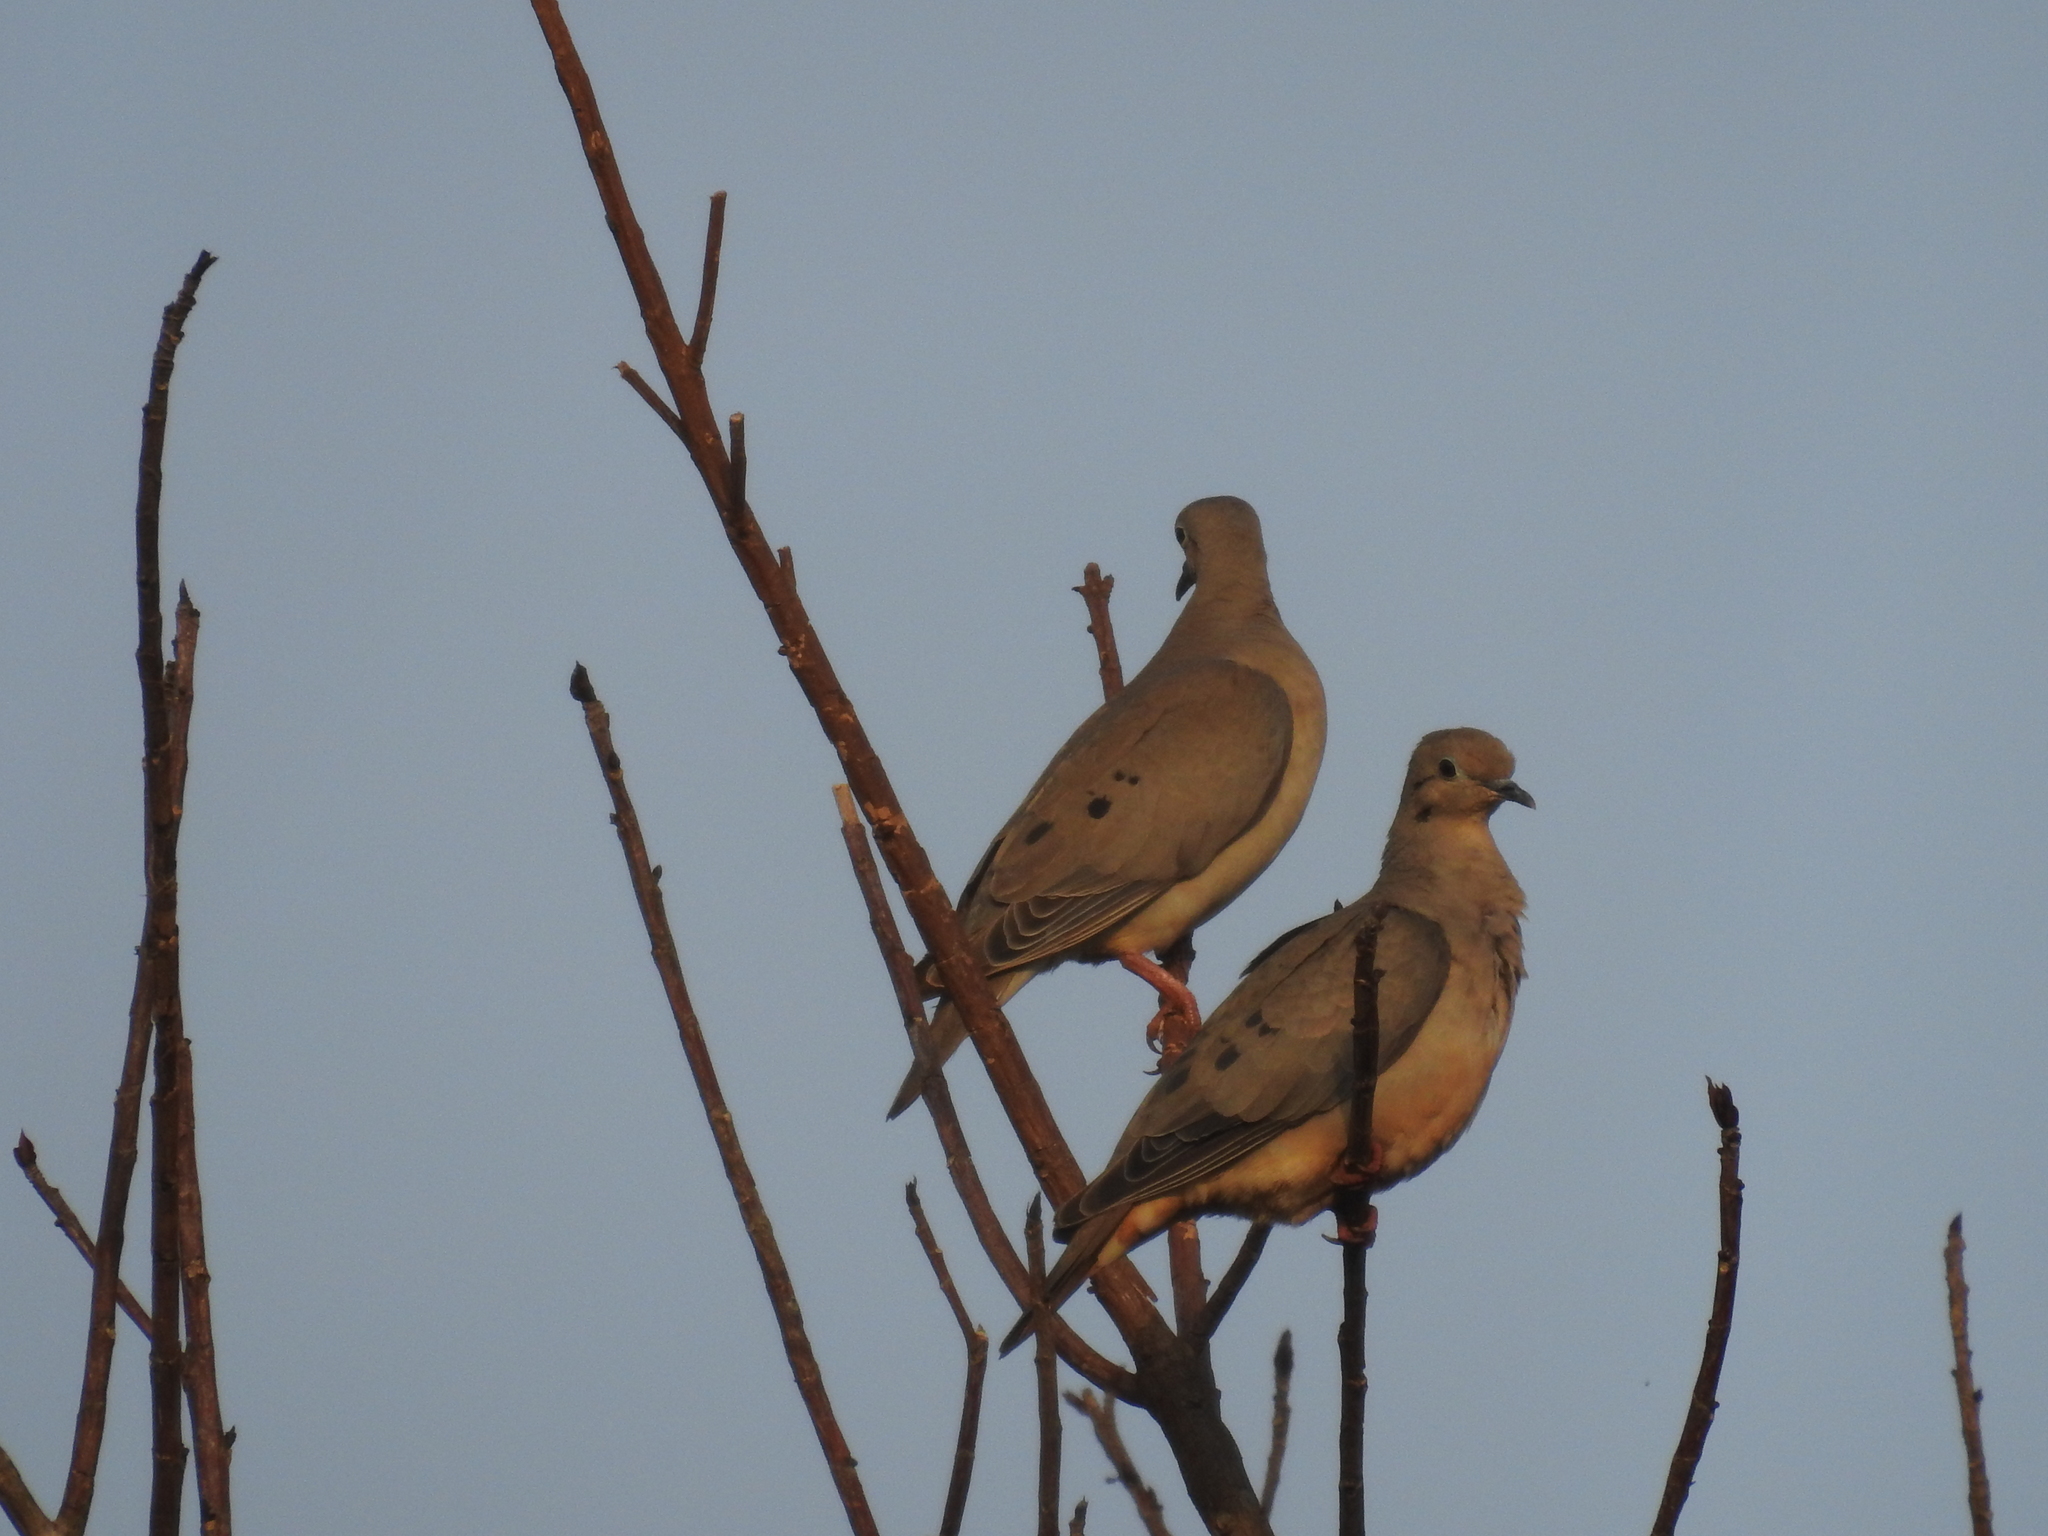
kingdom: Animalia
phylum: Chordata
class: Aves
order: Columbiformes
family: Columbidae
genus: Zenaida
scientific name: Zenaida auriculata
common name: Eared dove
